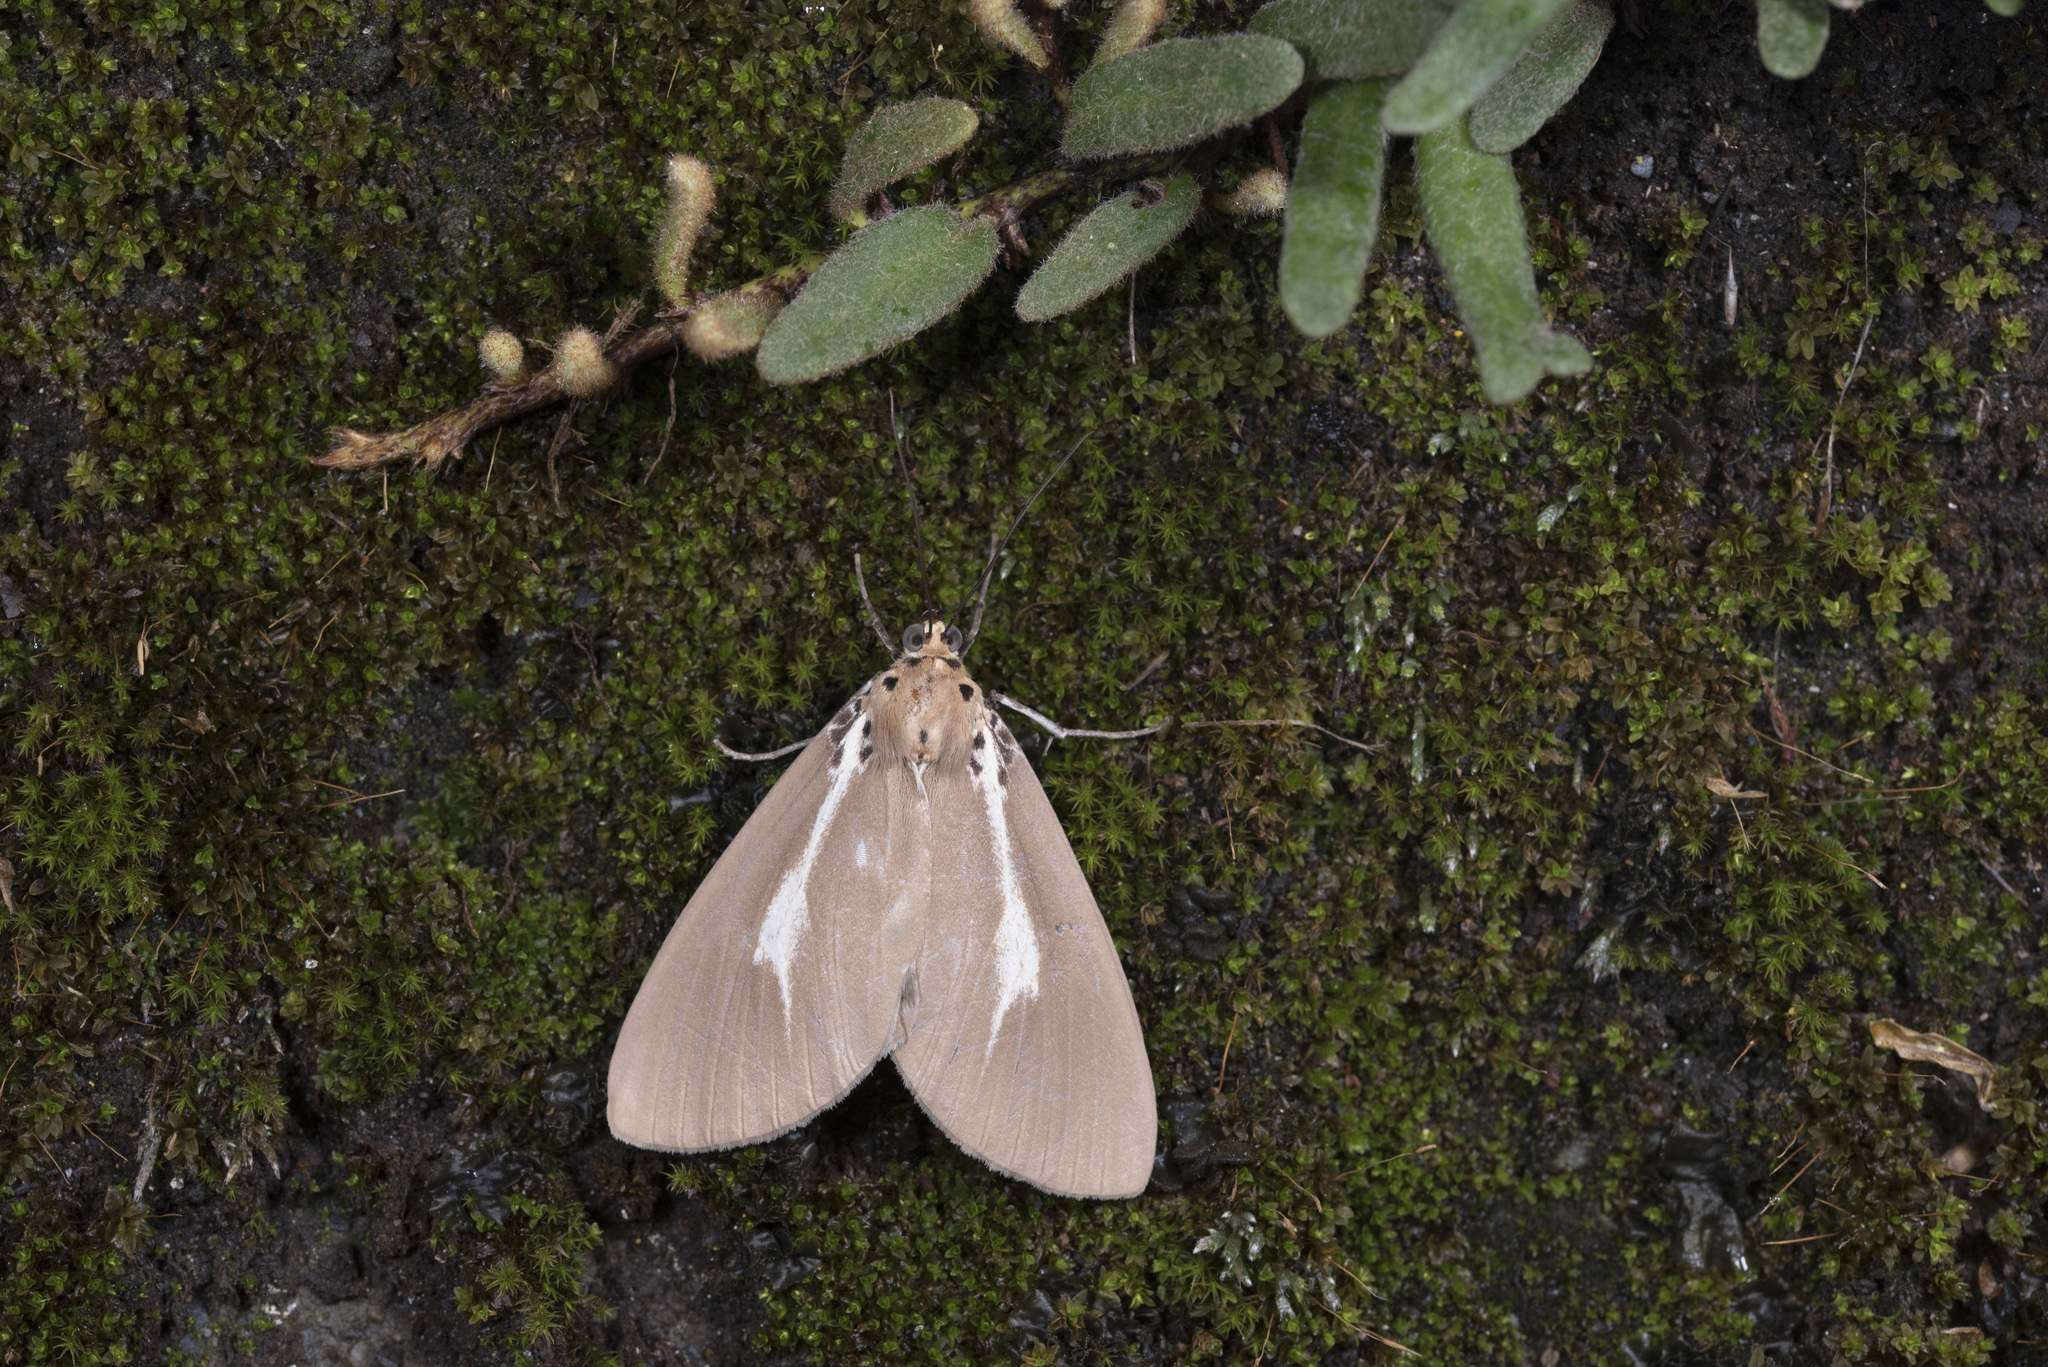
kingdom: Animalia
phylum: Arthropoda
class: Insecta
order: Lepidoptera
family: Erebidae
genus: Asota
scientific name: Asota heliconia
